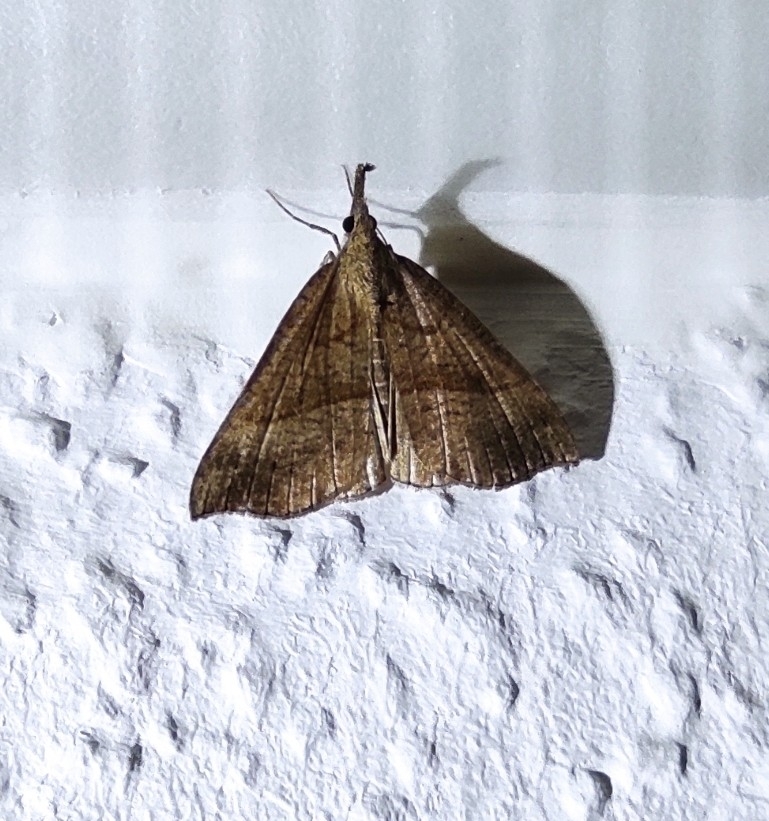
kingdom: Animalia
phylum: Arthropoda
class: Insecta
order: Lepidoptera
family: Erebidae
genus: Hypena
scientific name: Hypena proboscidalis
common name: Snout
